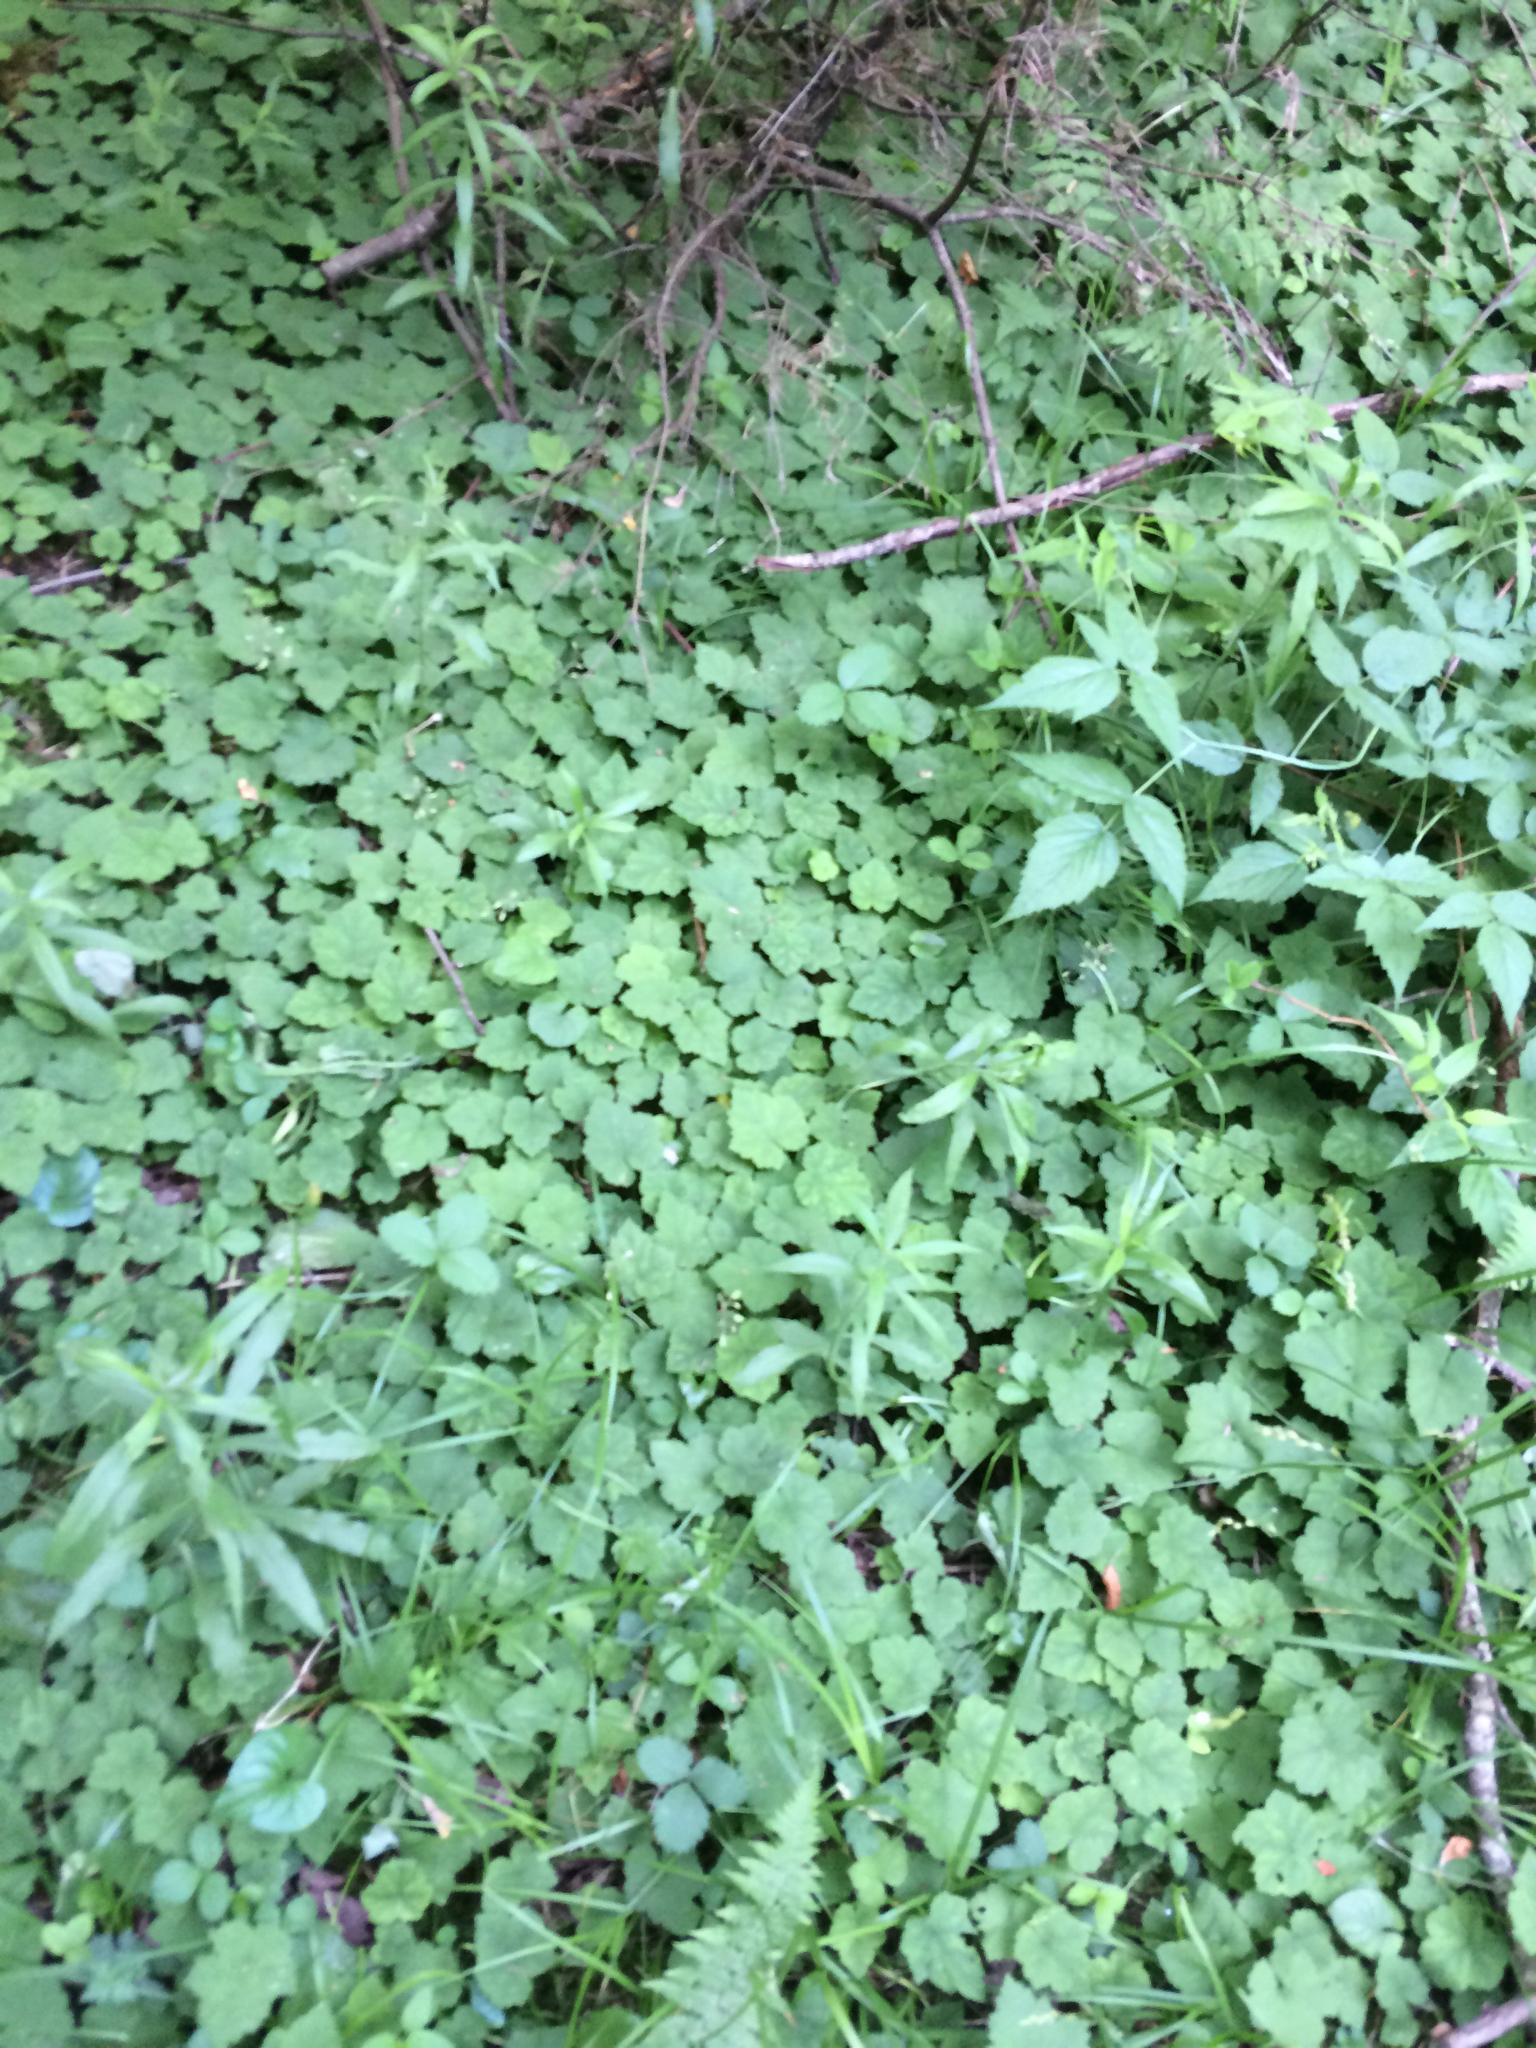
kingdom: Plantae
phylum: Tracheophyta
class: Magnoliopsida
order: Saxifragales
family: Saxifragaceae
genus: Tiarella
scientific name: Tiarella stolonifera
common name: Stoloniferous foamflower
